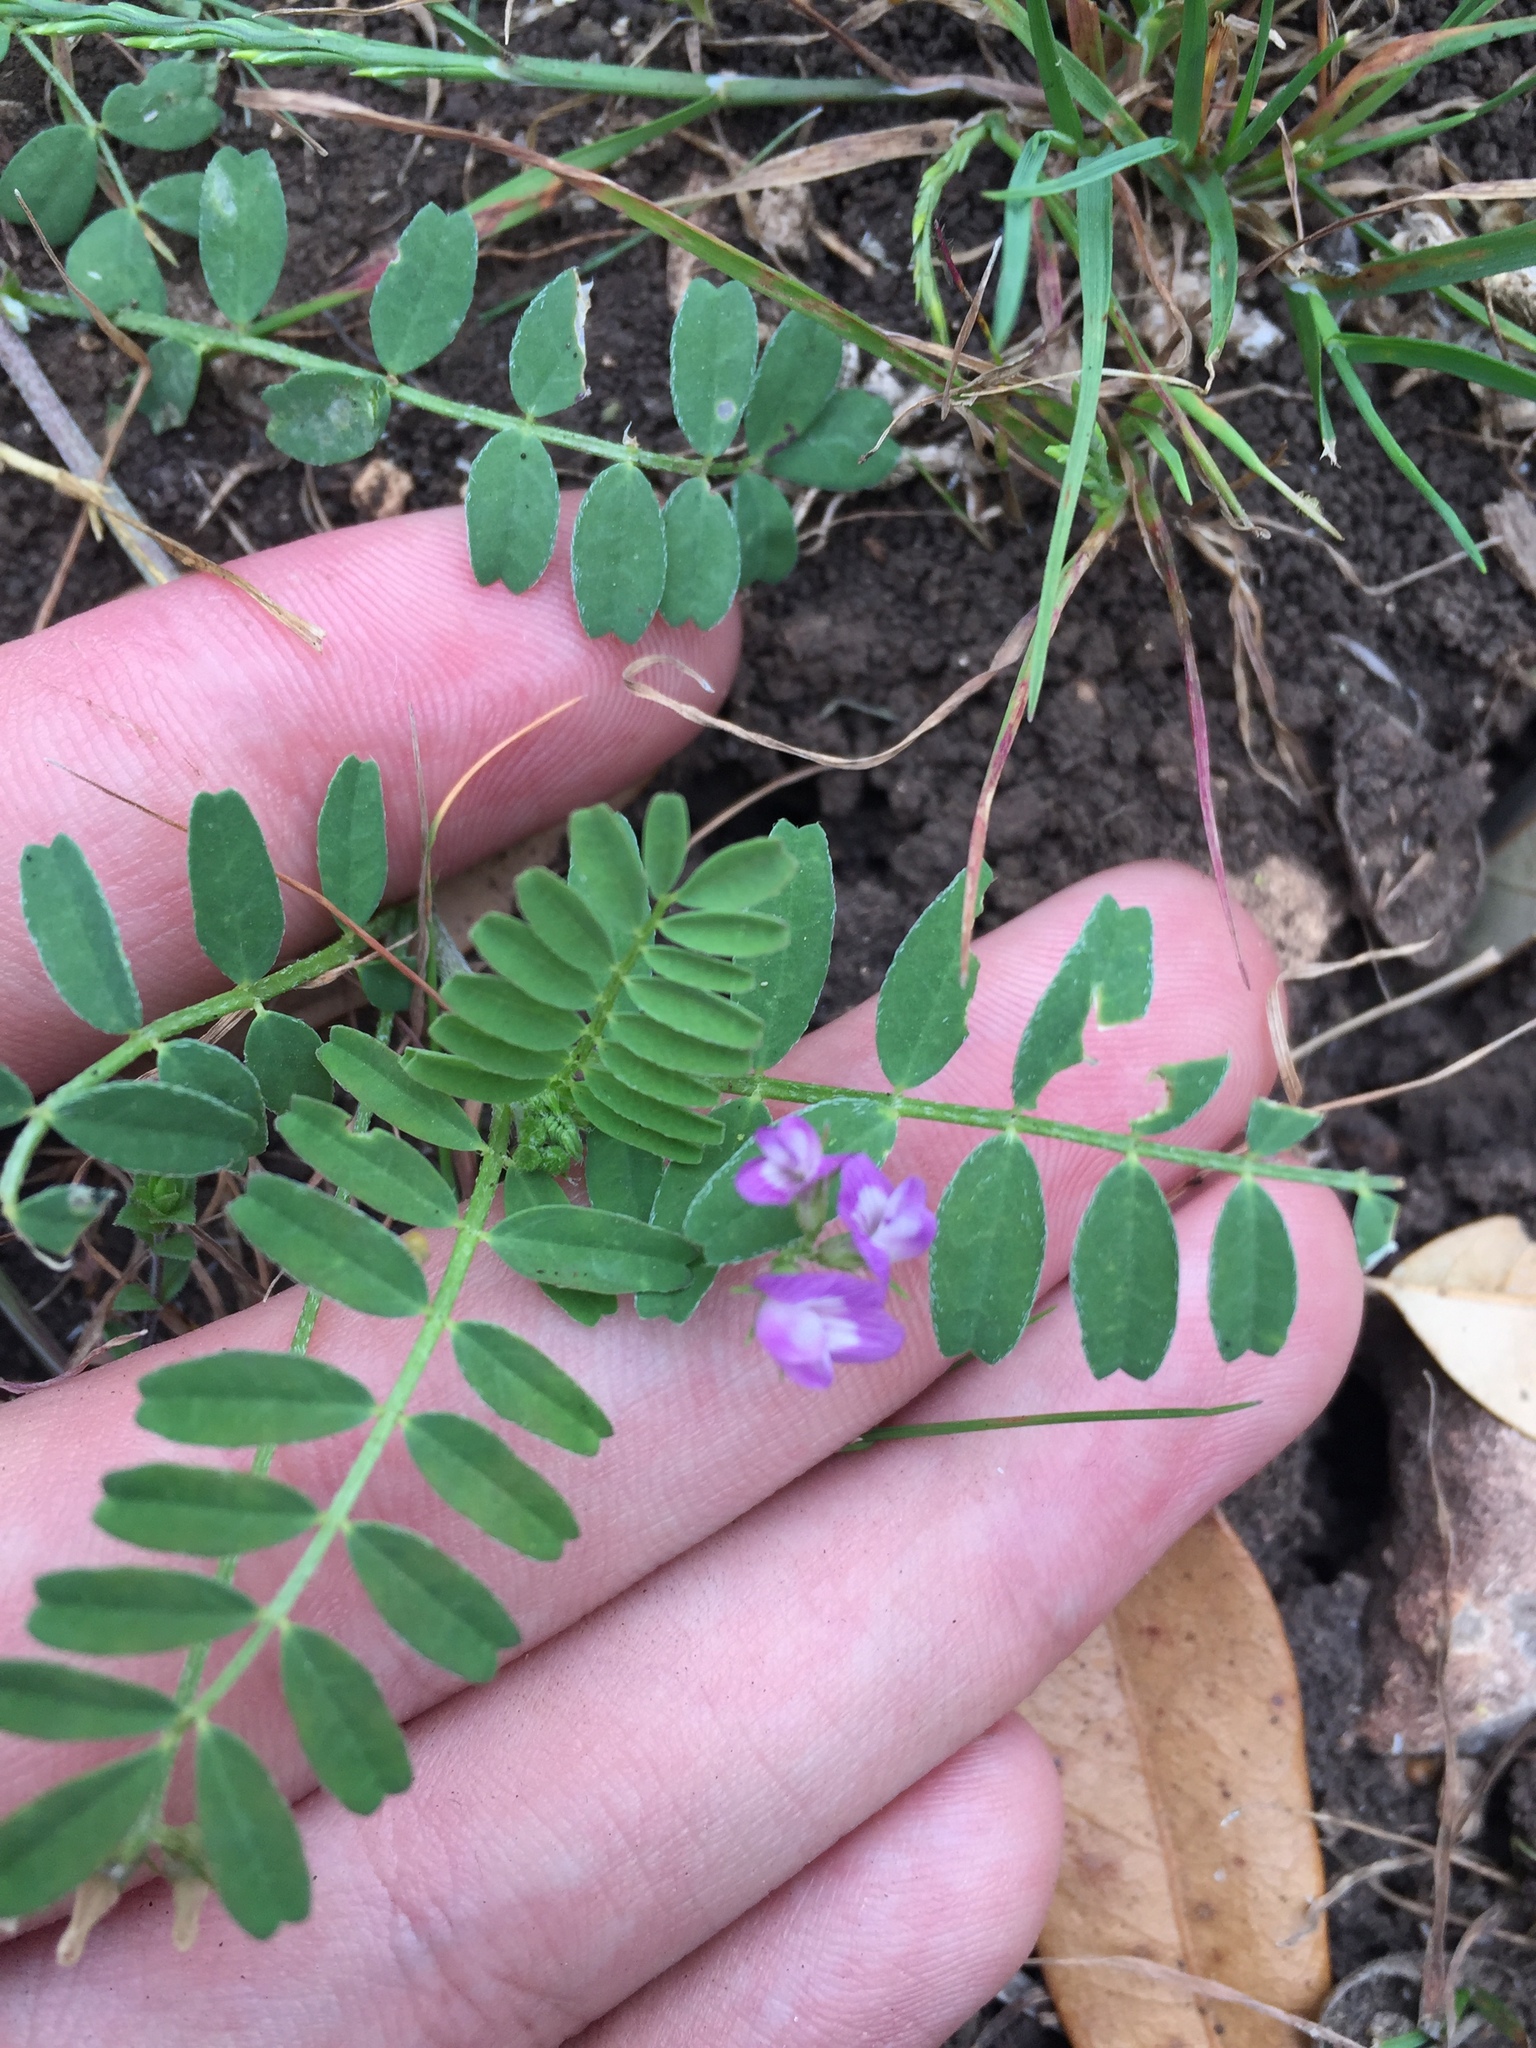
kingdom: Plantae
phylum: Tracheophyta
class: Magnoliopsida
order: Fabales
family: Fabaceae
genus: Astragalus
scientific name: Astragalus nuttallianus
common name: Smallflowered milkvetch
